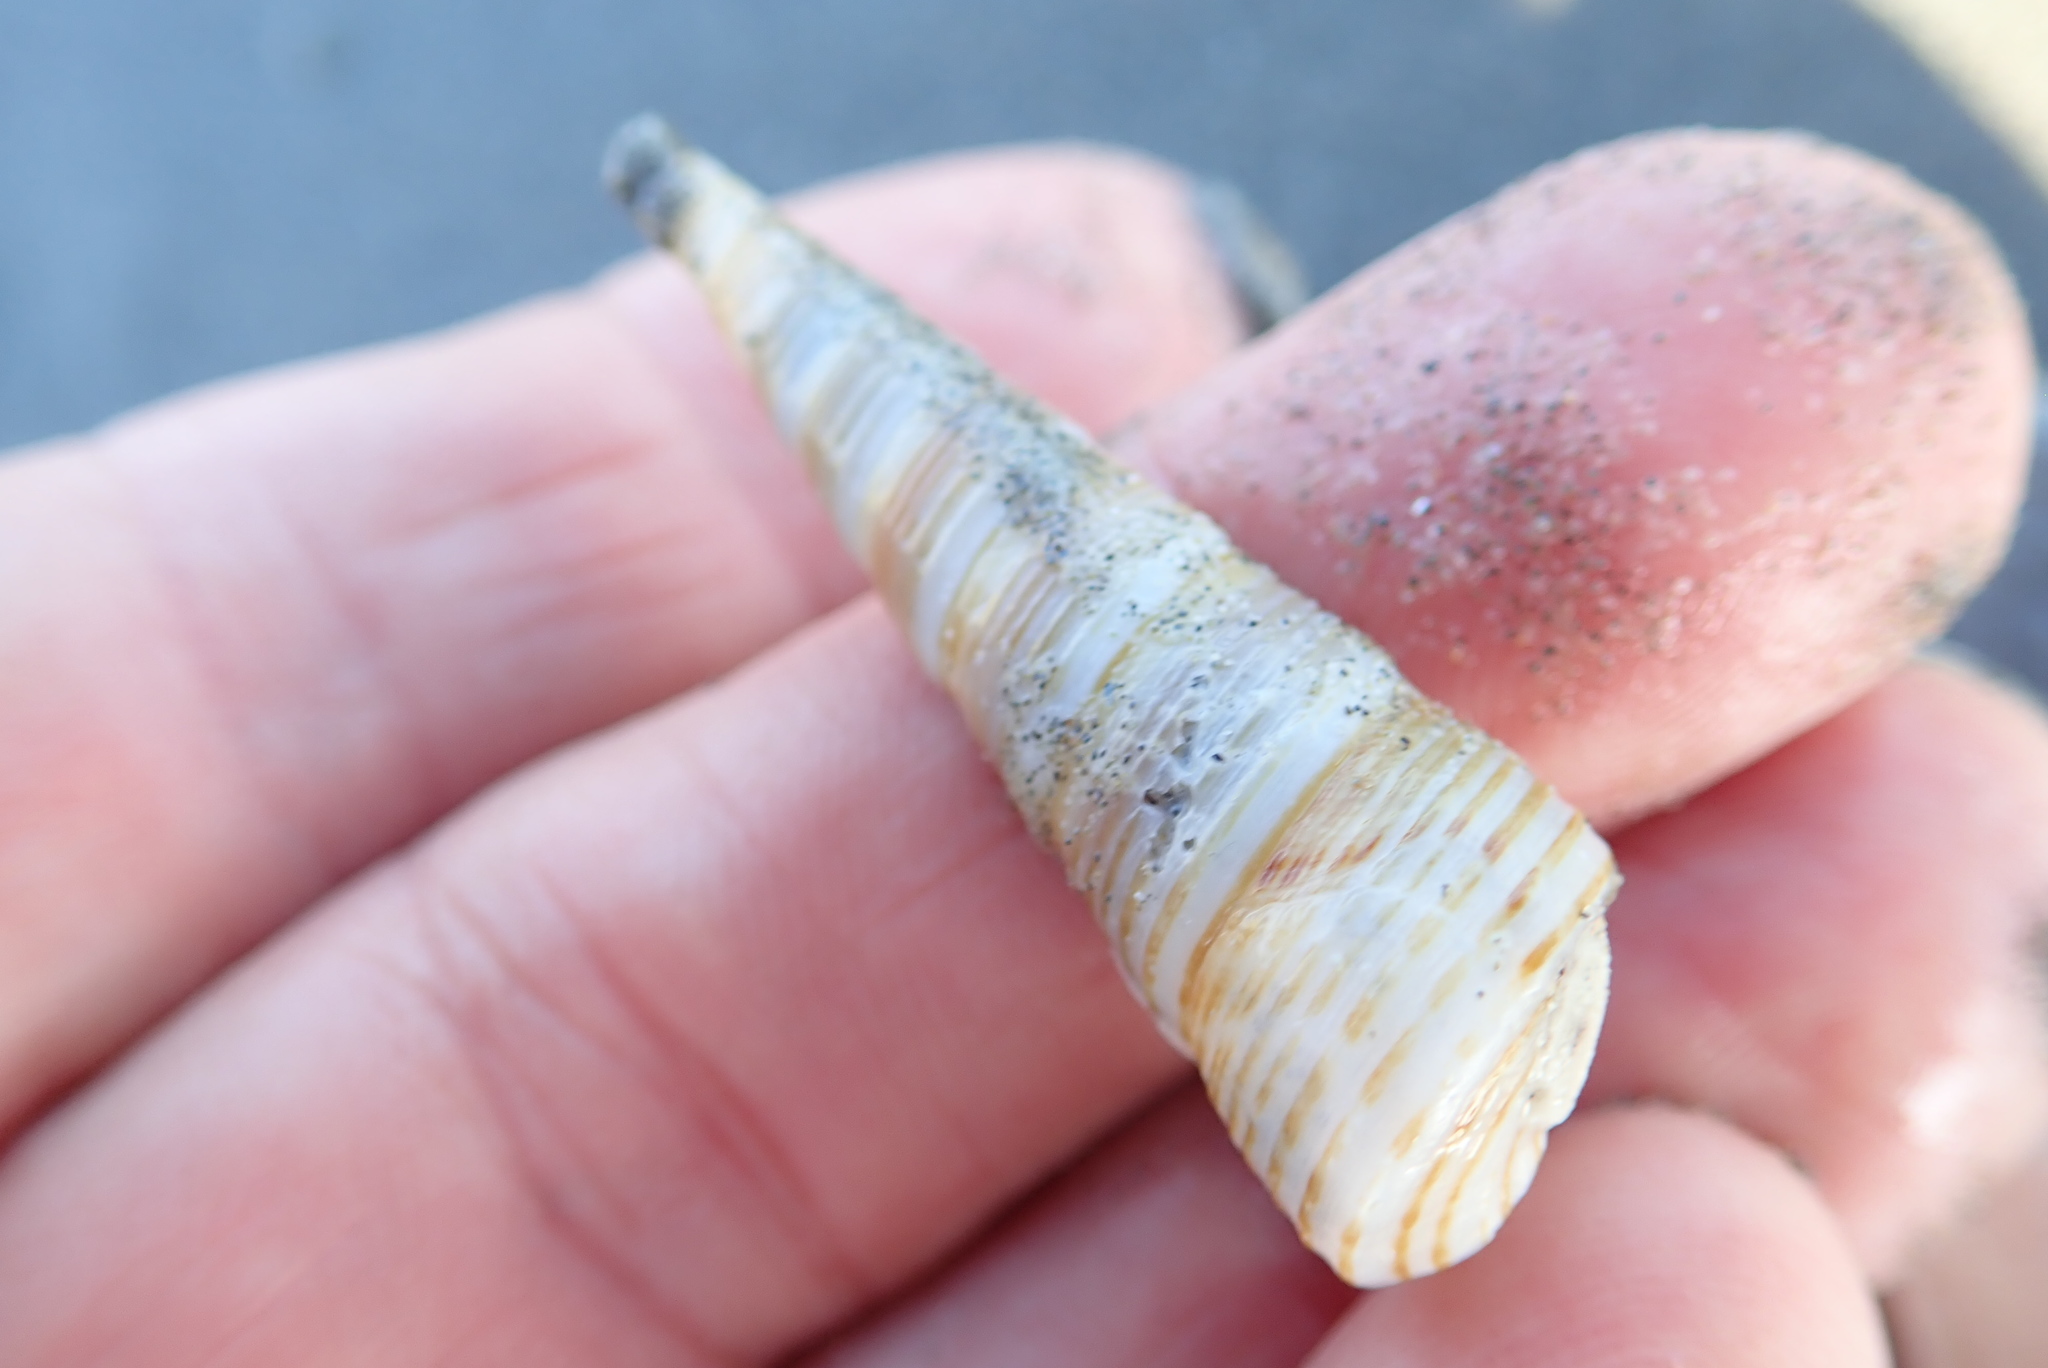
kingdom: Animalia
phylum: Mollusca
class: Gastropoda
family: Turritellidae
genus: Zeacolpus
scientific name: Zeacolpus vittatus
